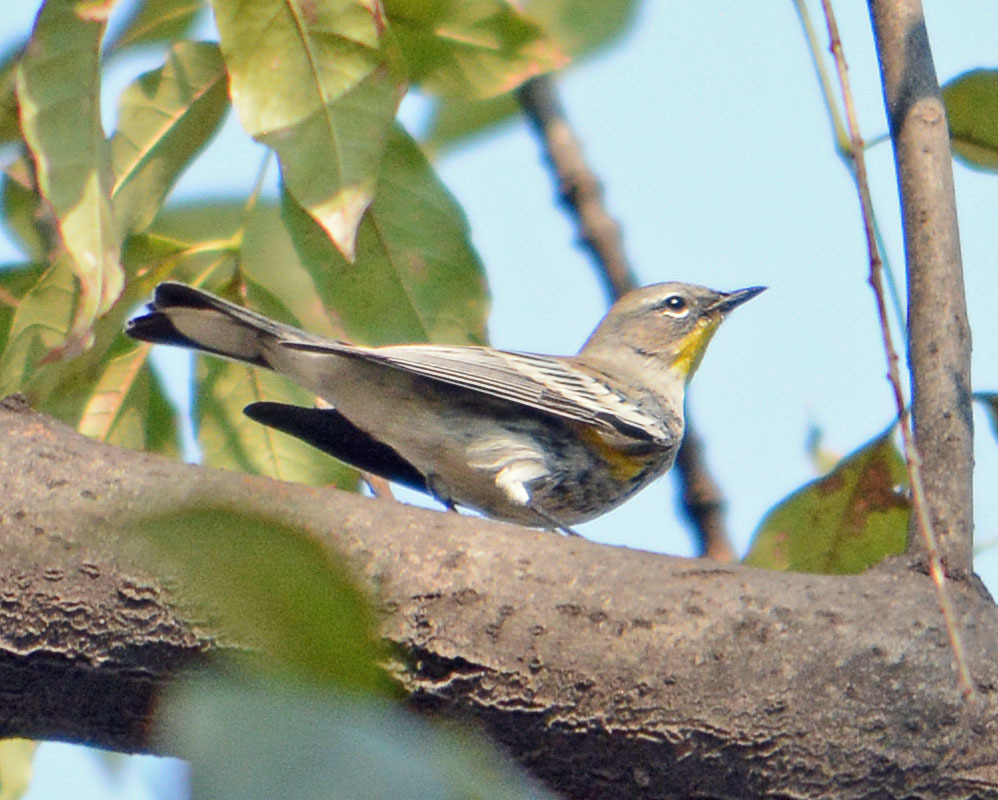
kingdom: Animalia
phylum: Chordata
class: Aves
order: Passeriformes
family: Parulidae
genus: Setophaga
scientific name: Setophaga coronata
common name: Myrtle warbler
